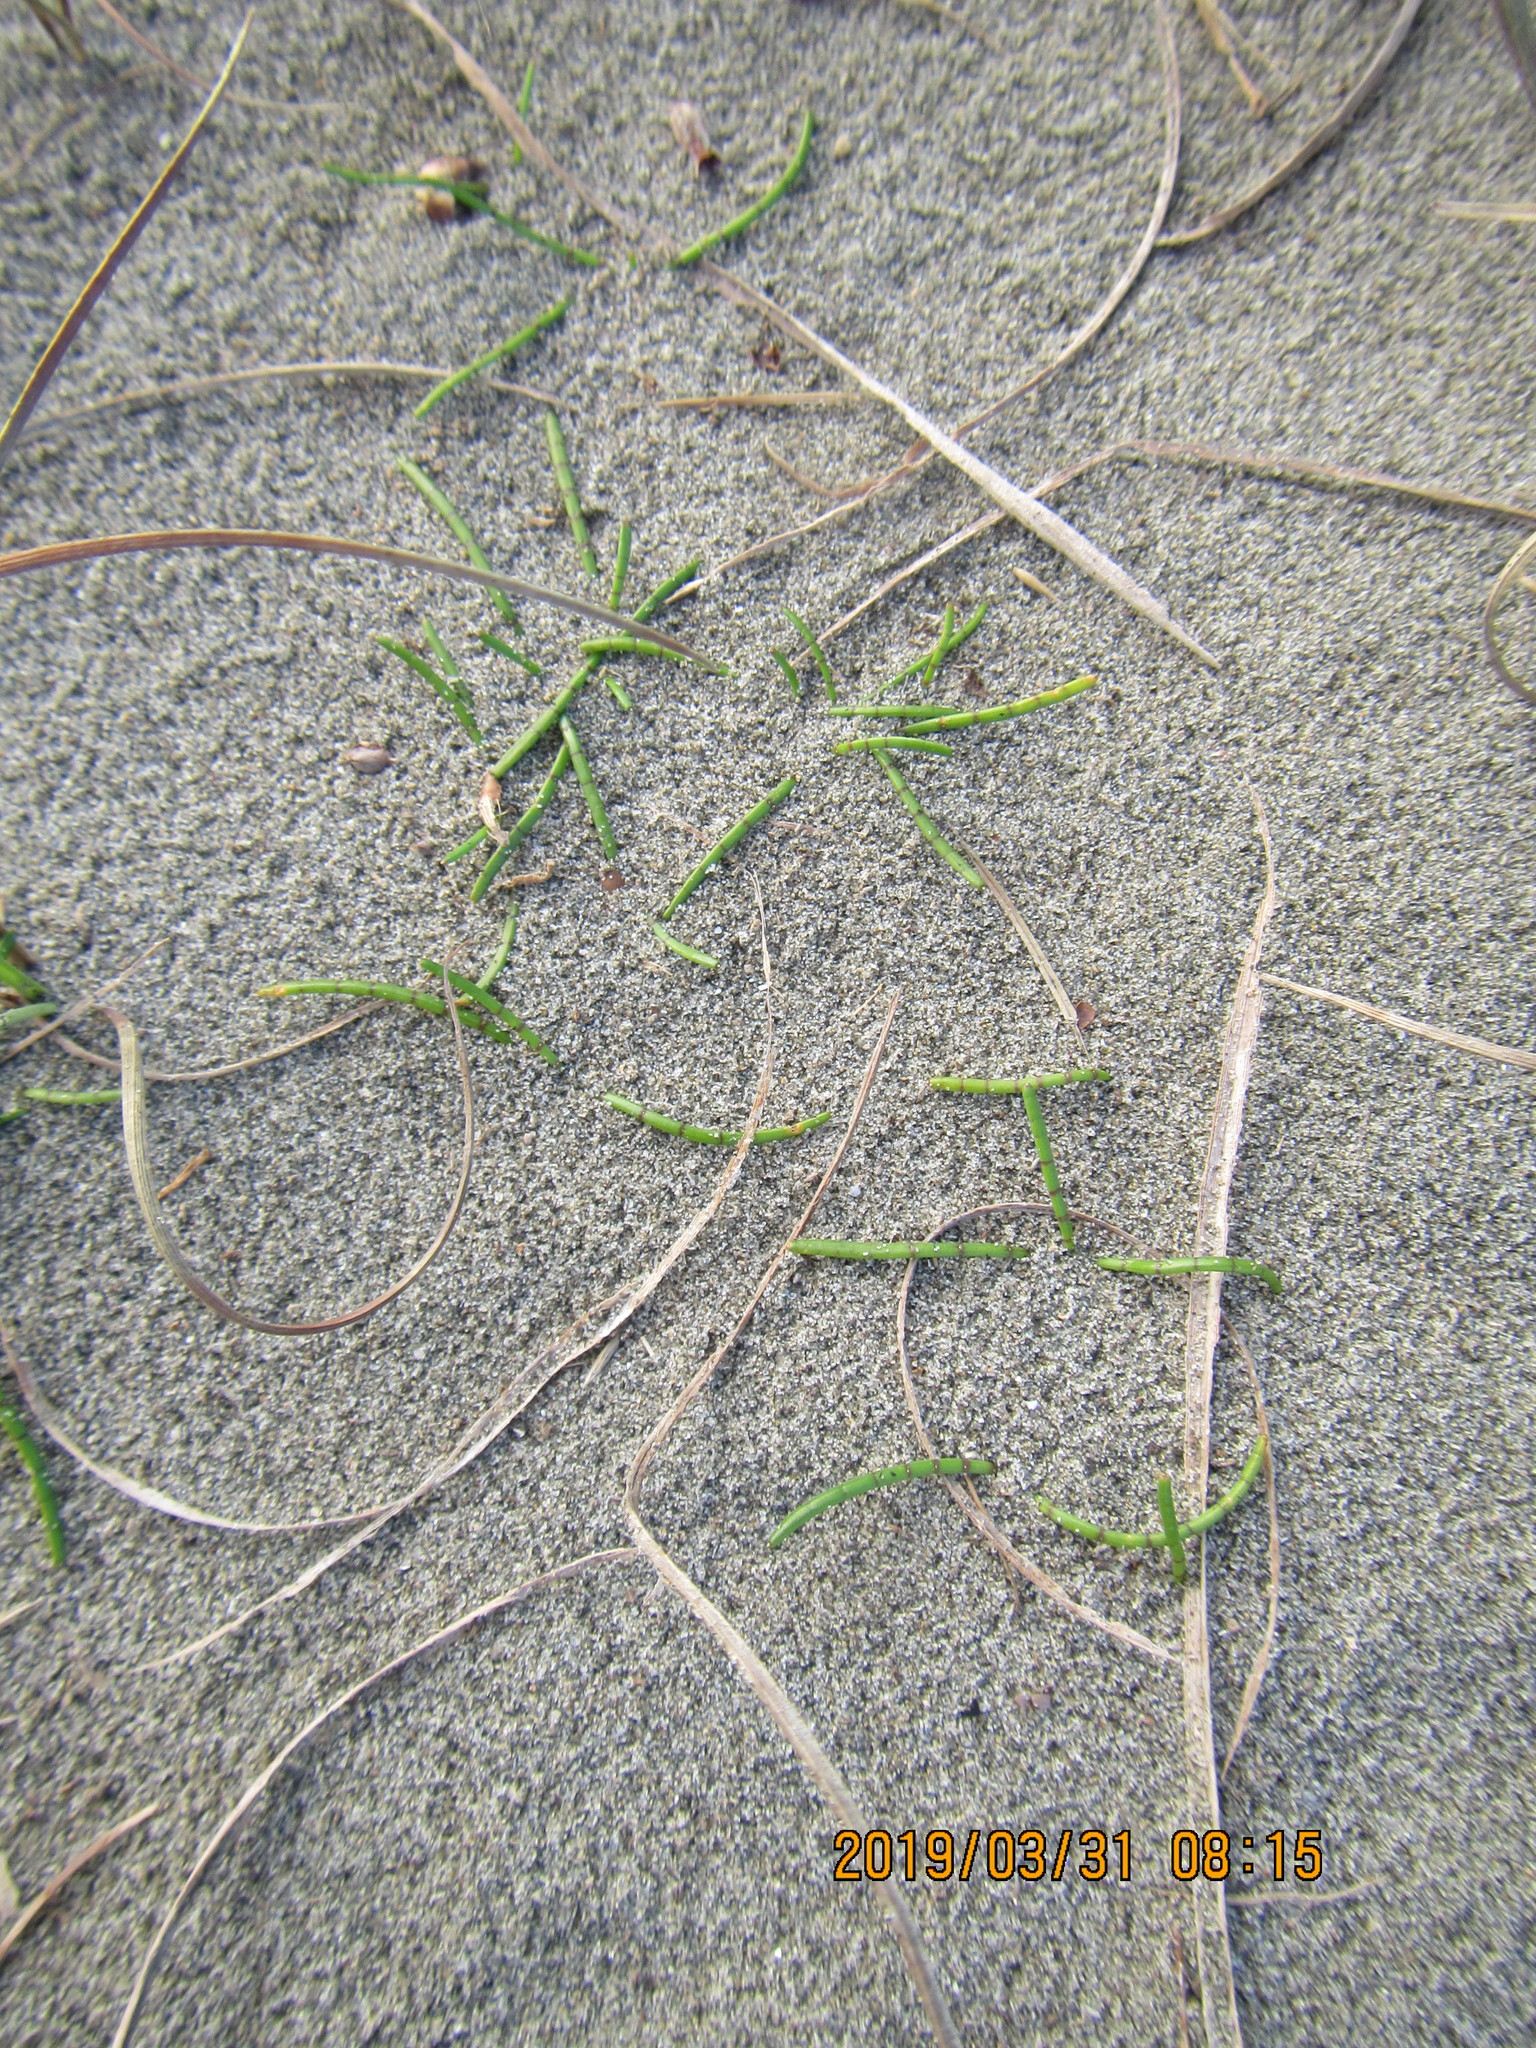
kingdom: Plantae
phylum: Tracheophyta
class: Magnoliopsida
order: Apiales
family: Apiaceae
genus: Lilaeopsis
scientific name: Lilaeopsis novae-zelandiae
